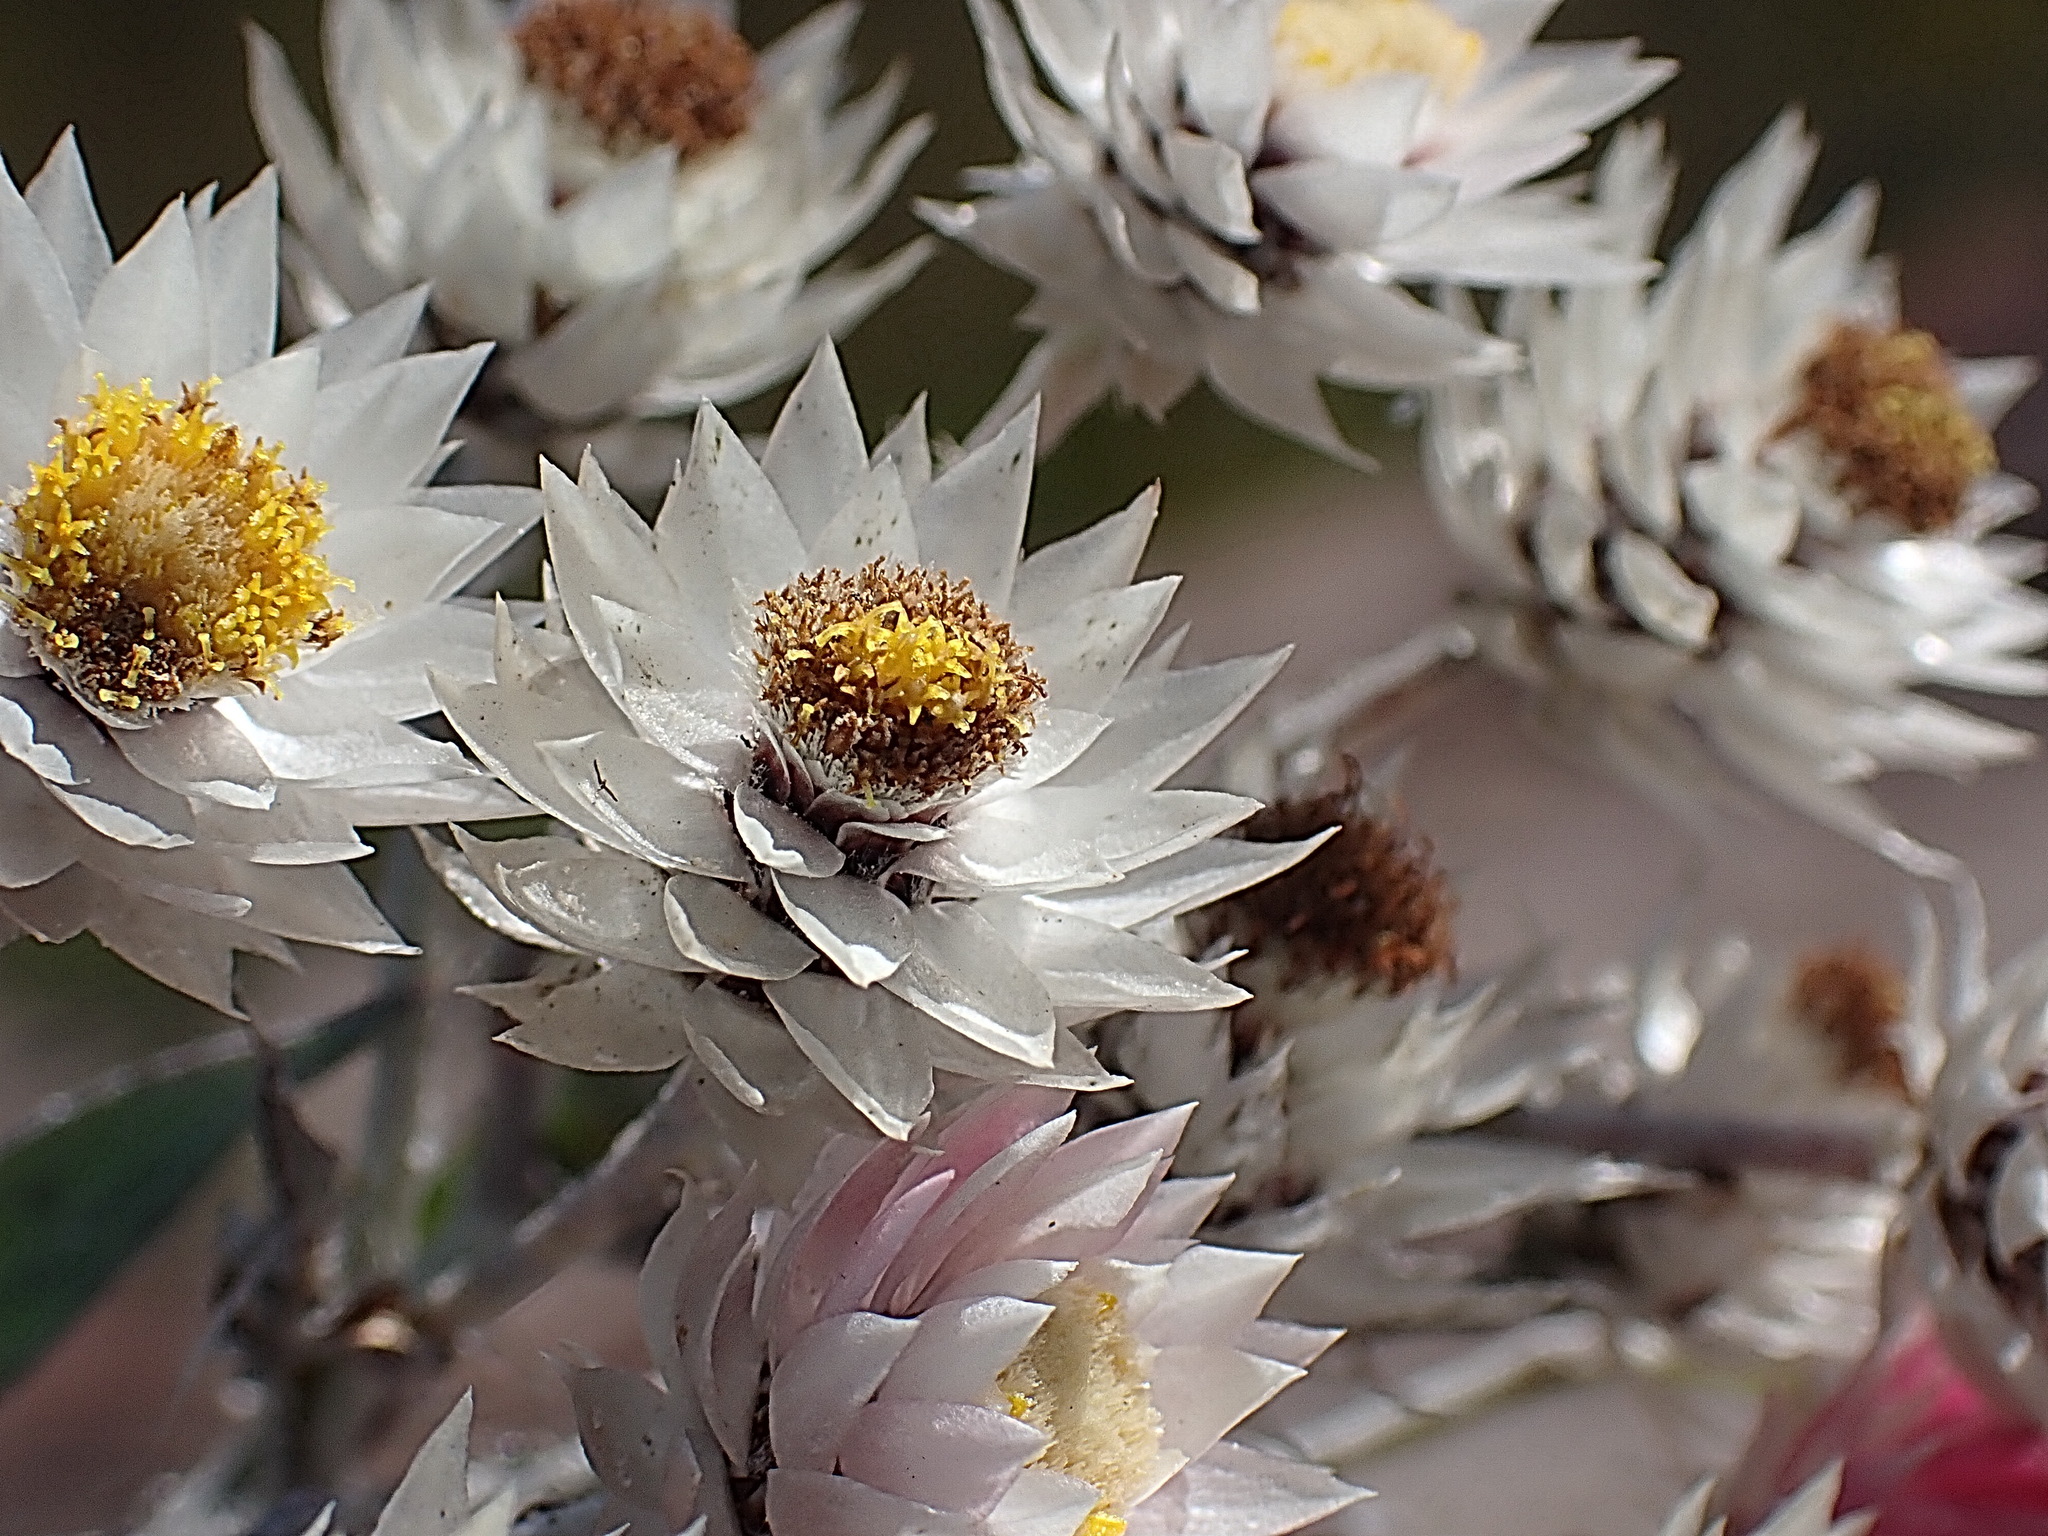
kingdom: Plantae
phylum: Tracheophyta
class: Magnoliopsida
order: Asterales
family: Asteraceae
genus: Achyranthemum
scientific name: Achyranthemum paniculatum
